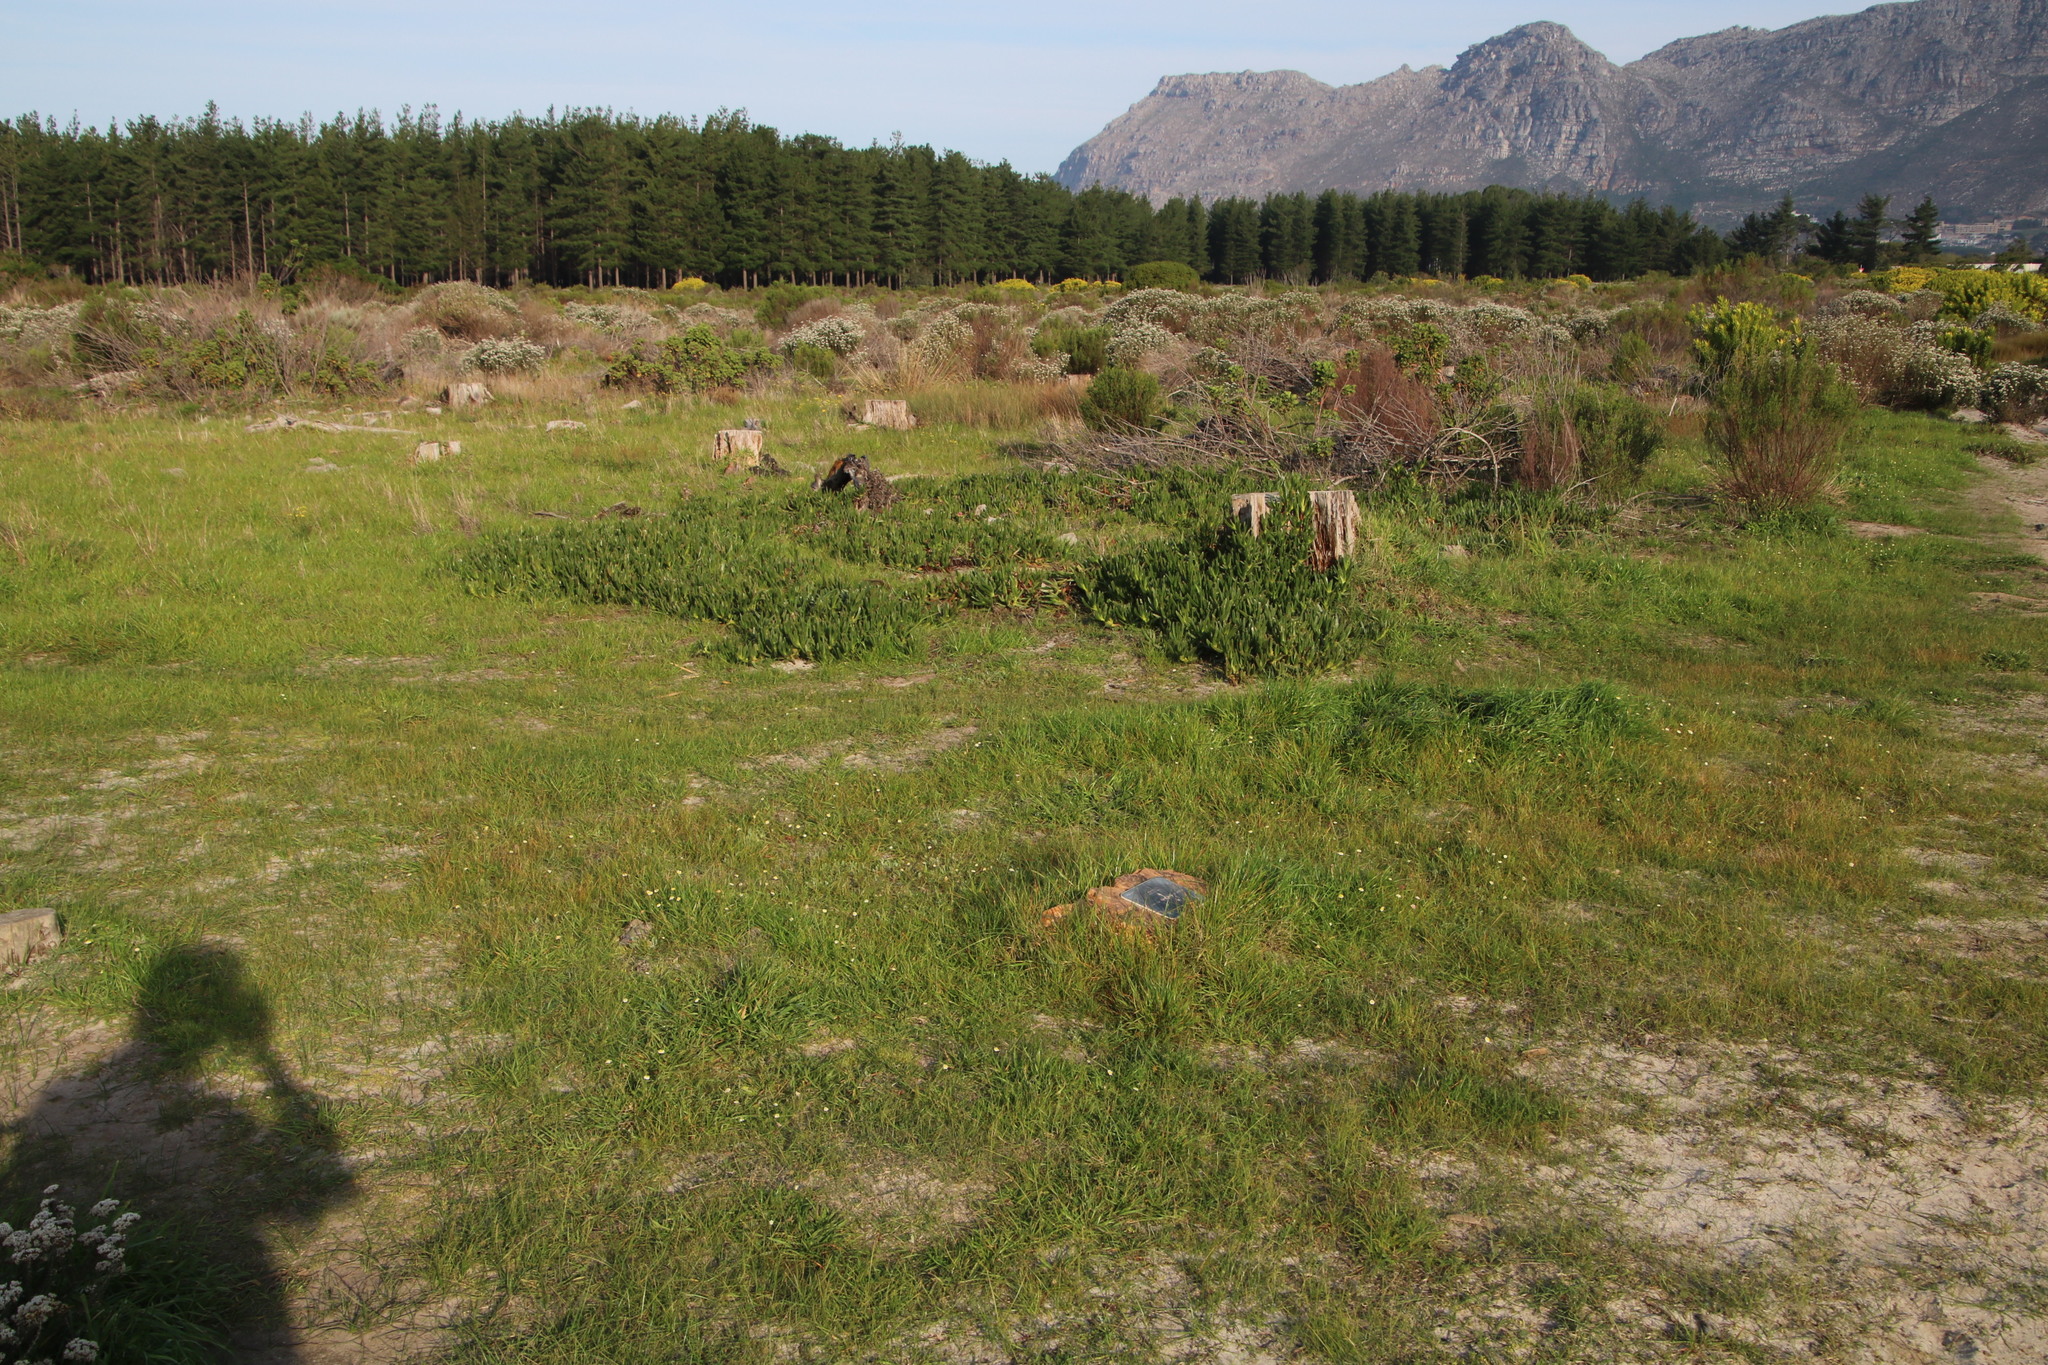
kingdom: Plantae
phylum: Tracheophyta
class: Magnoliopsida
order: Asterales
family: Asteraceae
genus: Cotula
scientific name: Cotula turbinata
